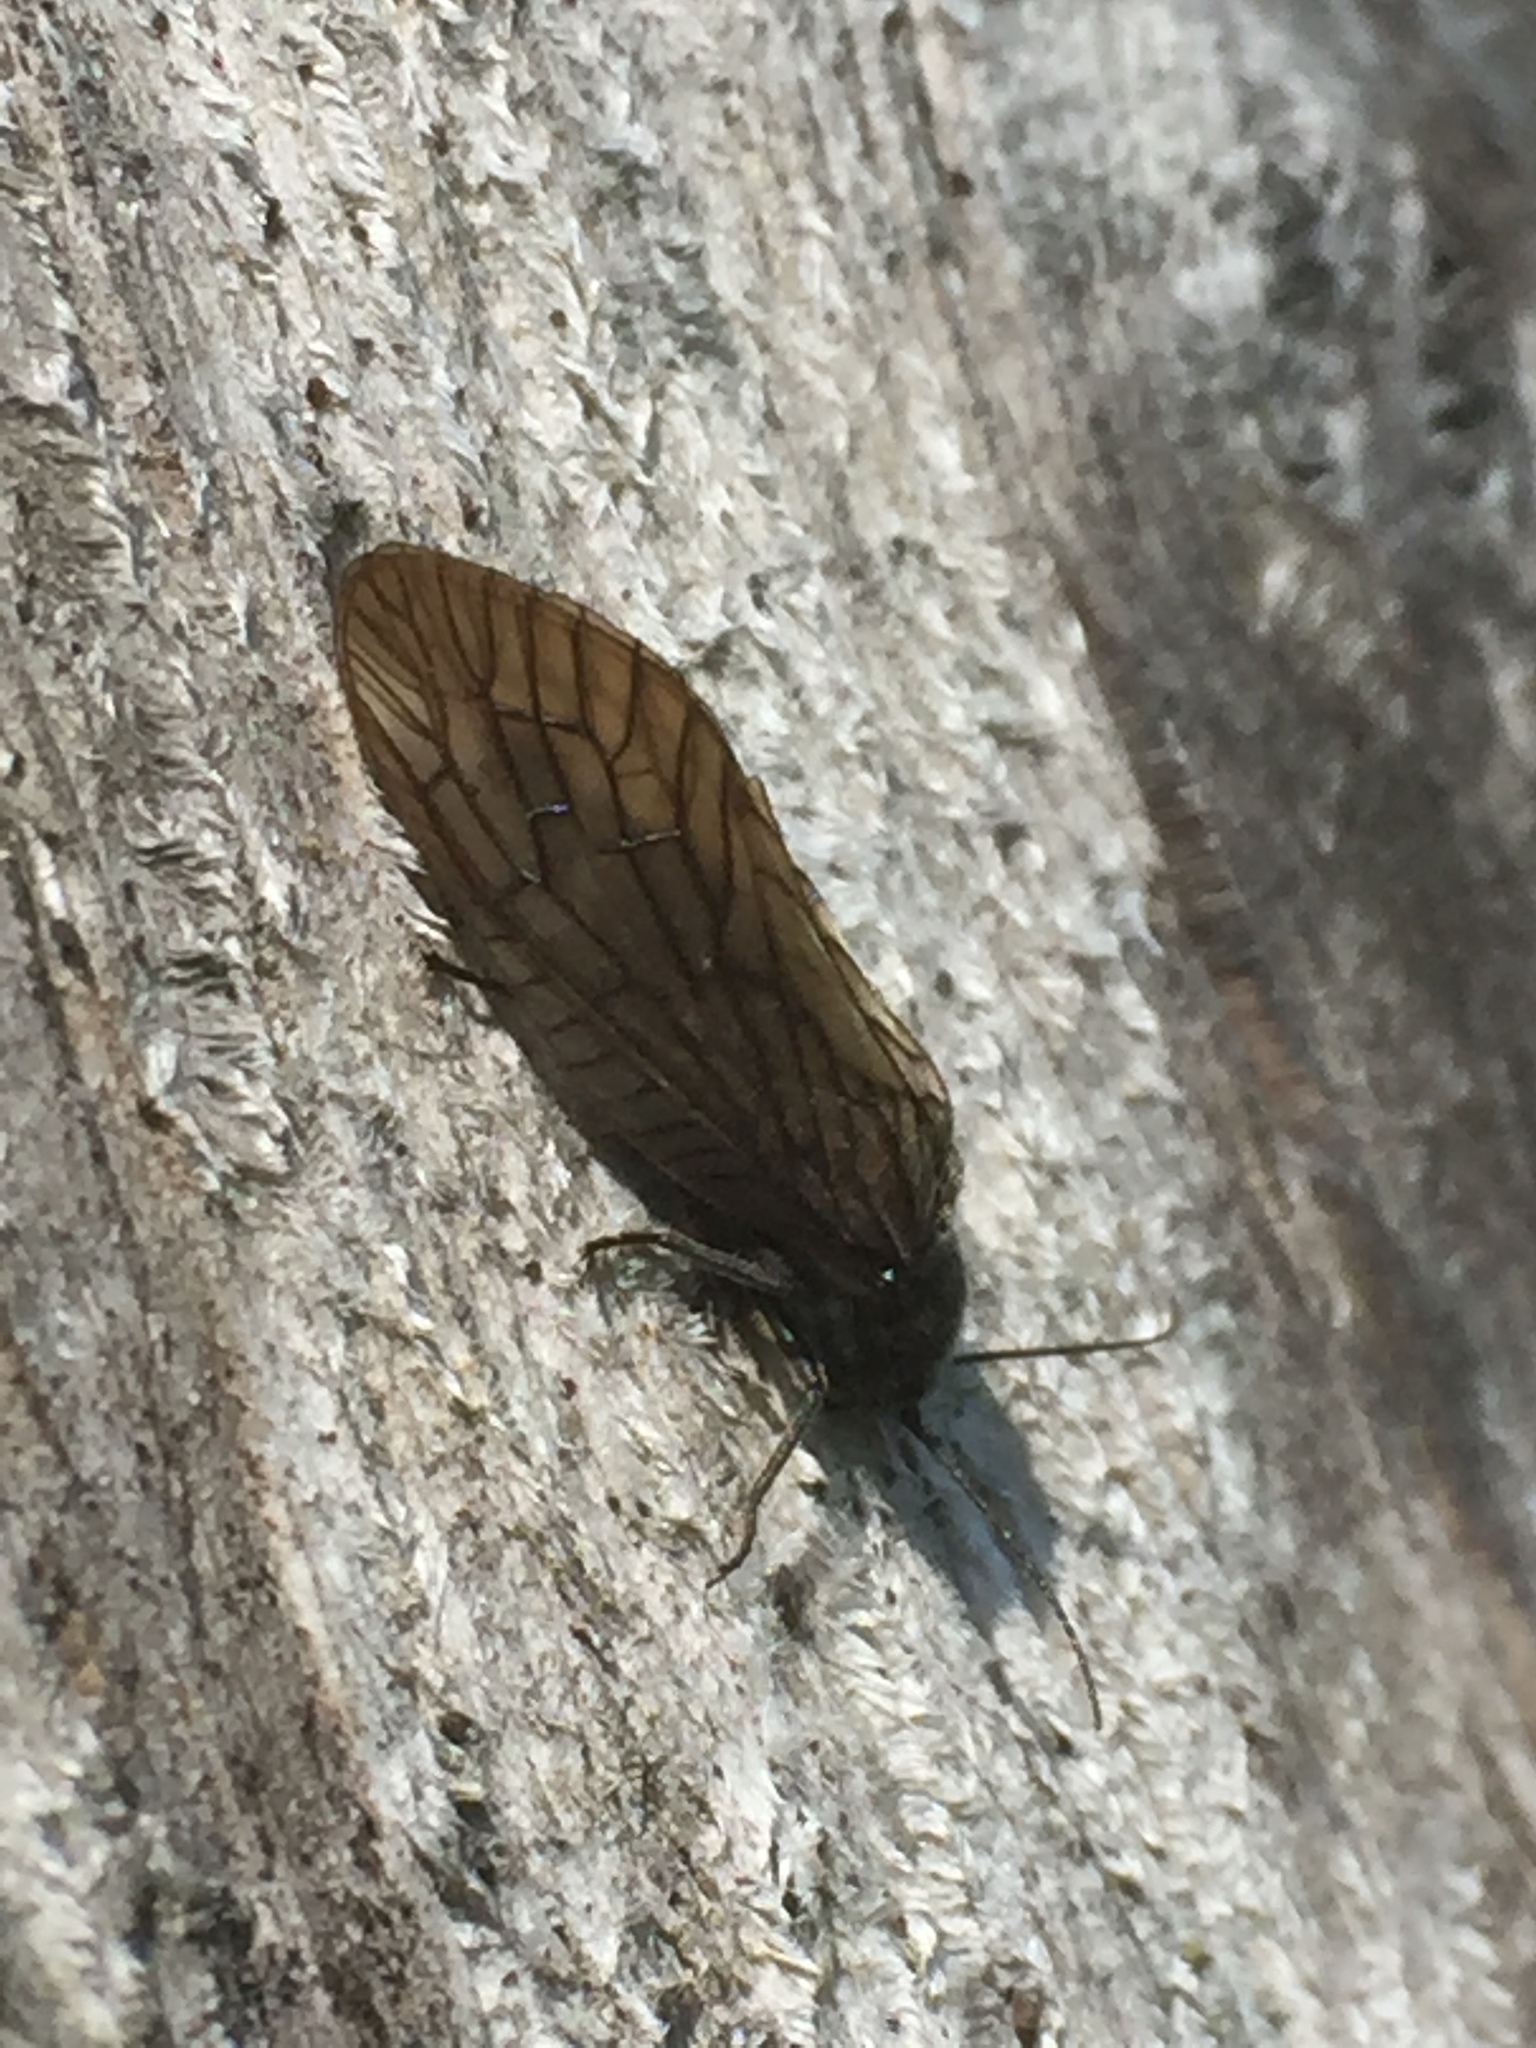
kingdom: Animalia
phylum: Arthropoda
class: Insecta
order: Megaloptera
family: Sialidae
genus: Sialis
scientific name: Sialis
